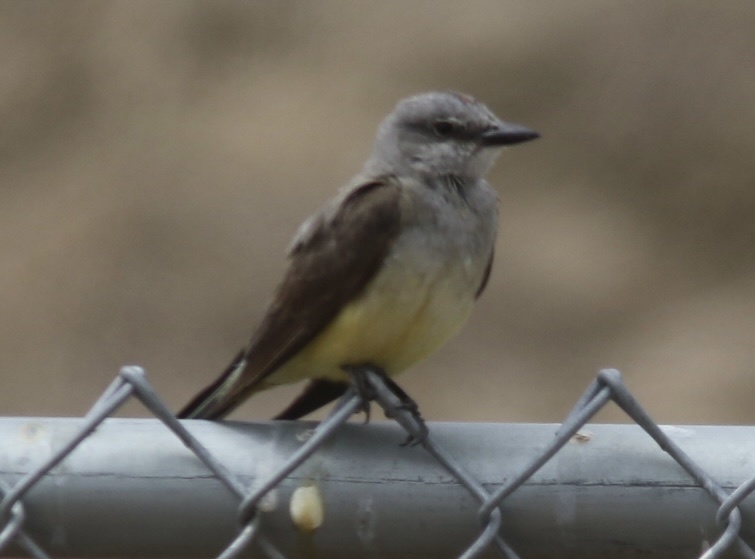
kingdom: Animalia
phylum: Chordata
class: Aves
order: Passeriformes
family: Tyrannidae
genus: Tyrannus
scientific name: Tyrannus verticalis
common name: Western kingbird
